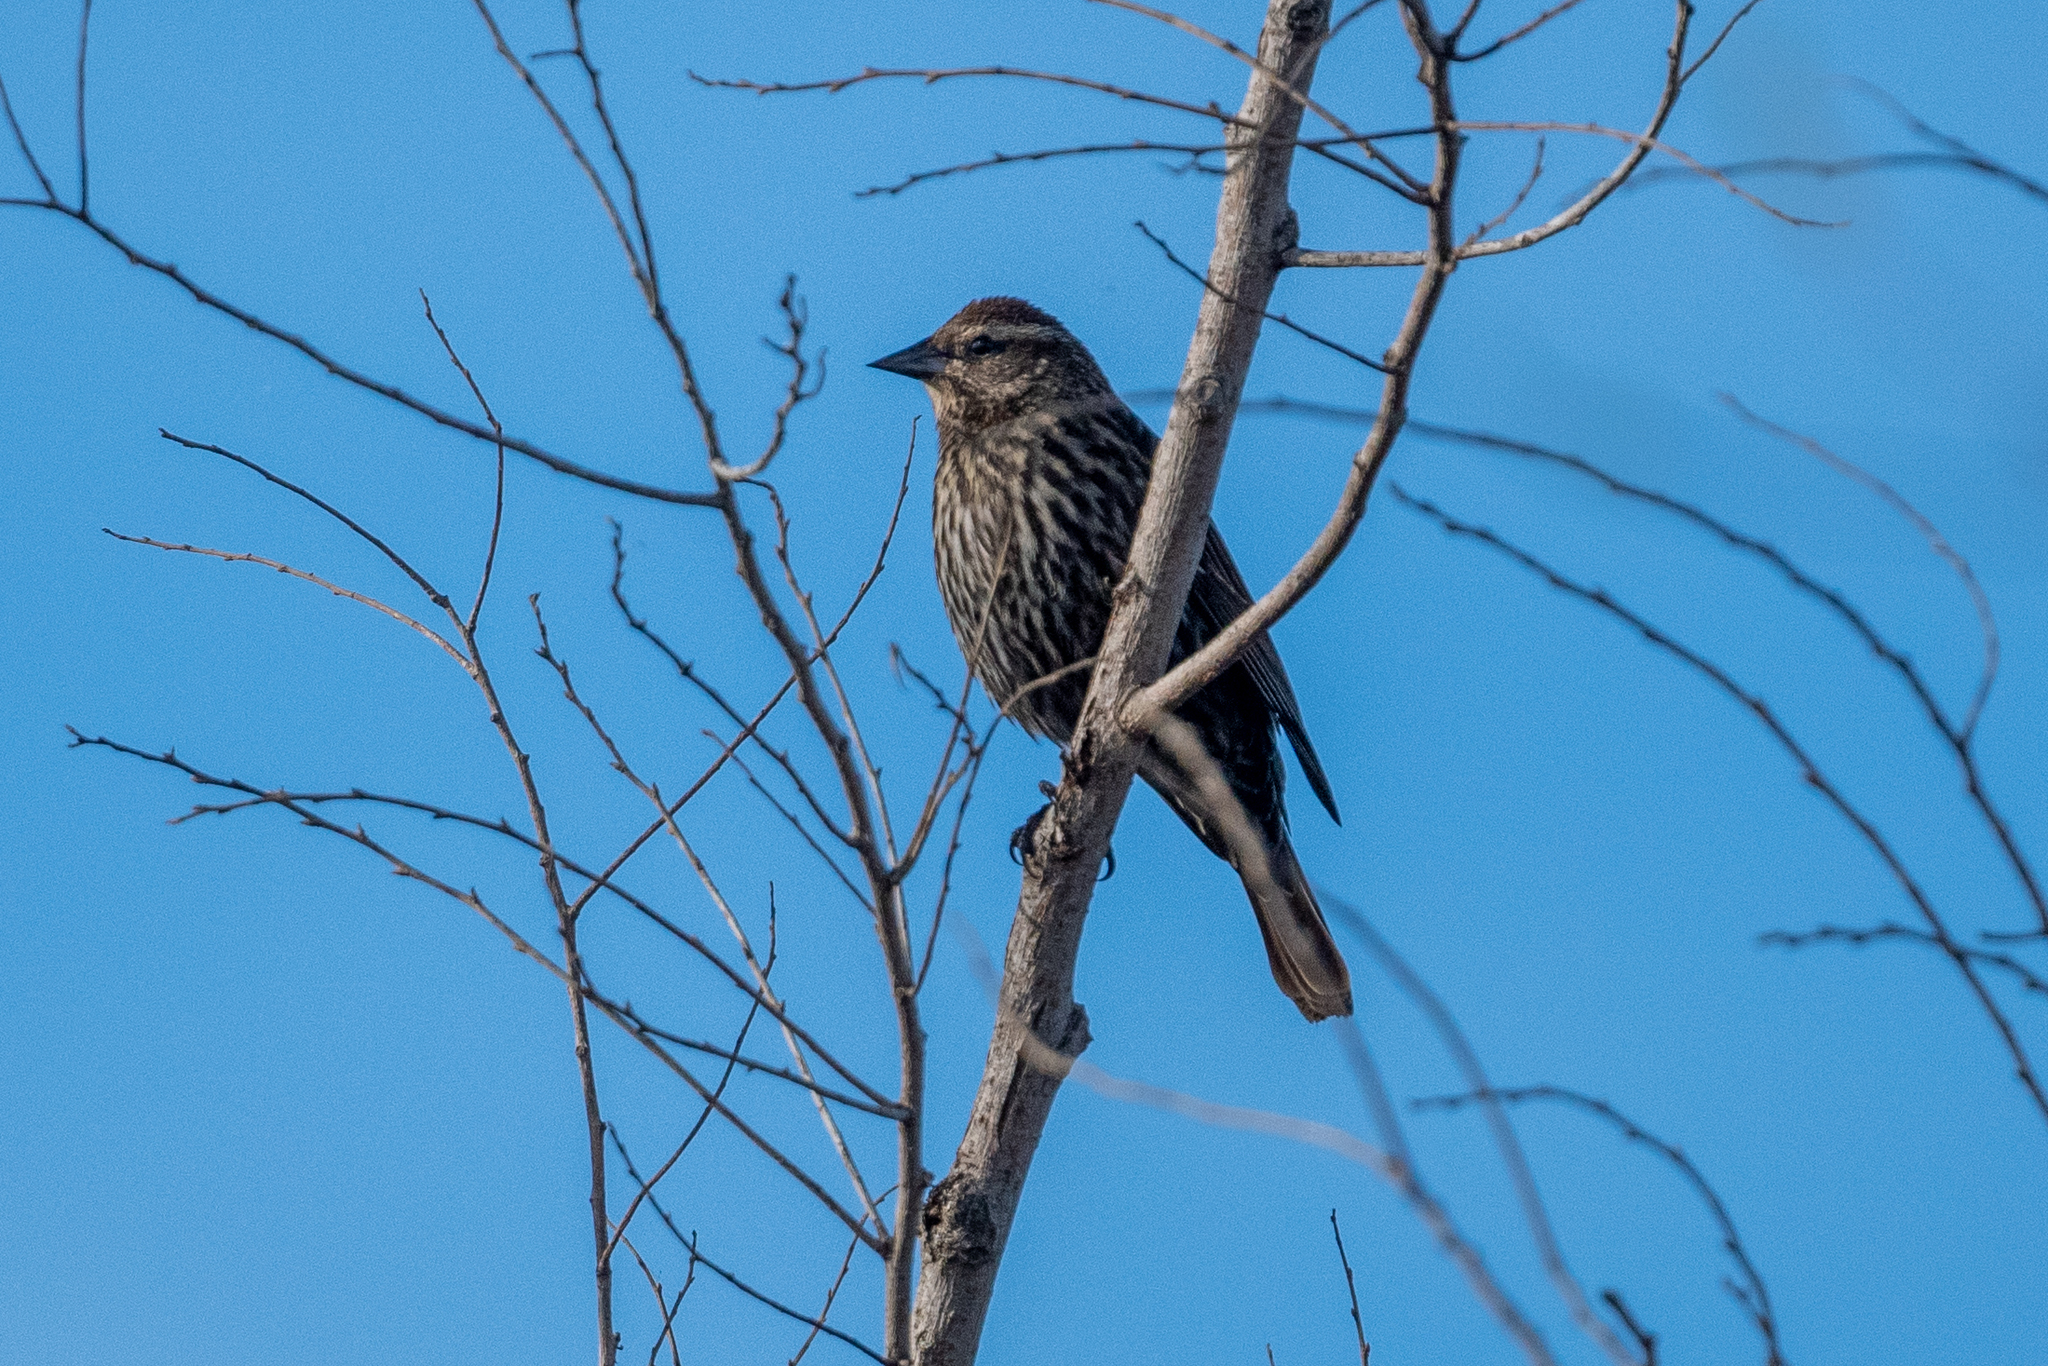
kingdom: Animalia
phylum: Chordata
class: Aves
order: Passeriformes
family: Icteridae
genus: Agelaius
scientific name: Agelaius phoeniceus
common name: Red-winged blackbird
